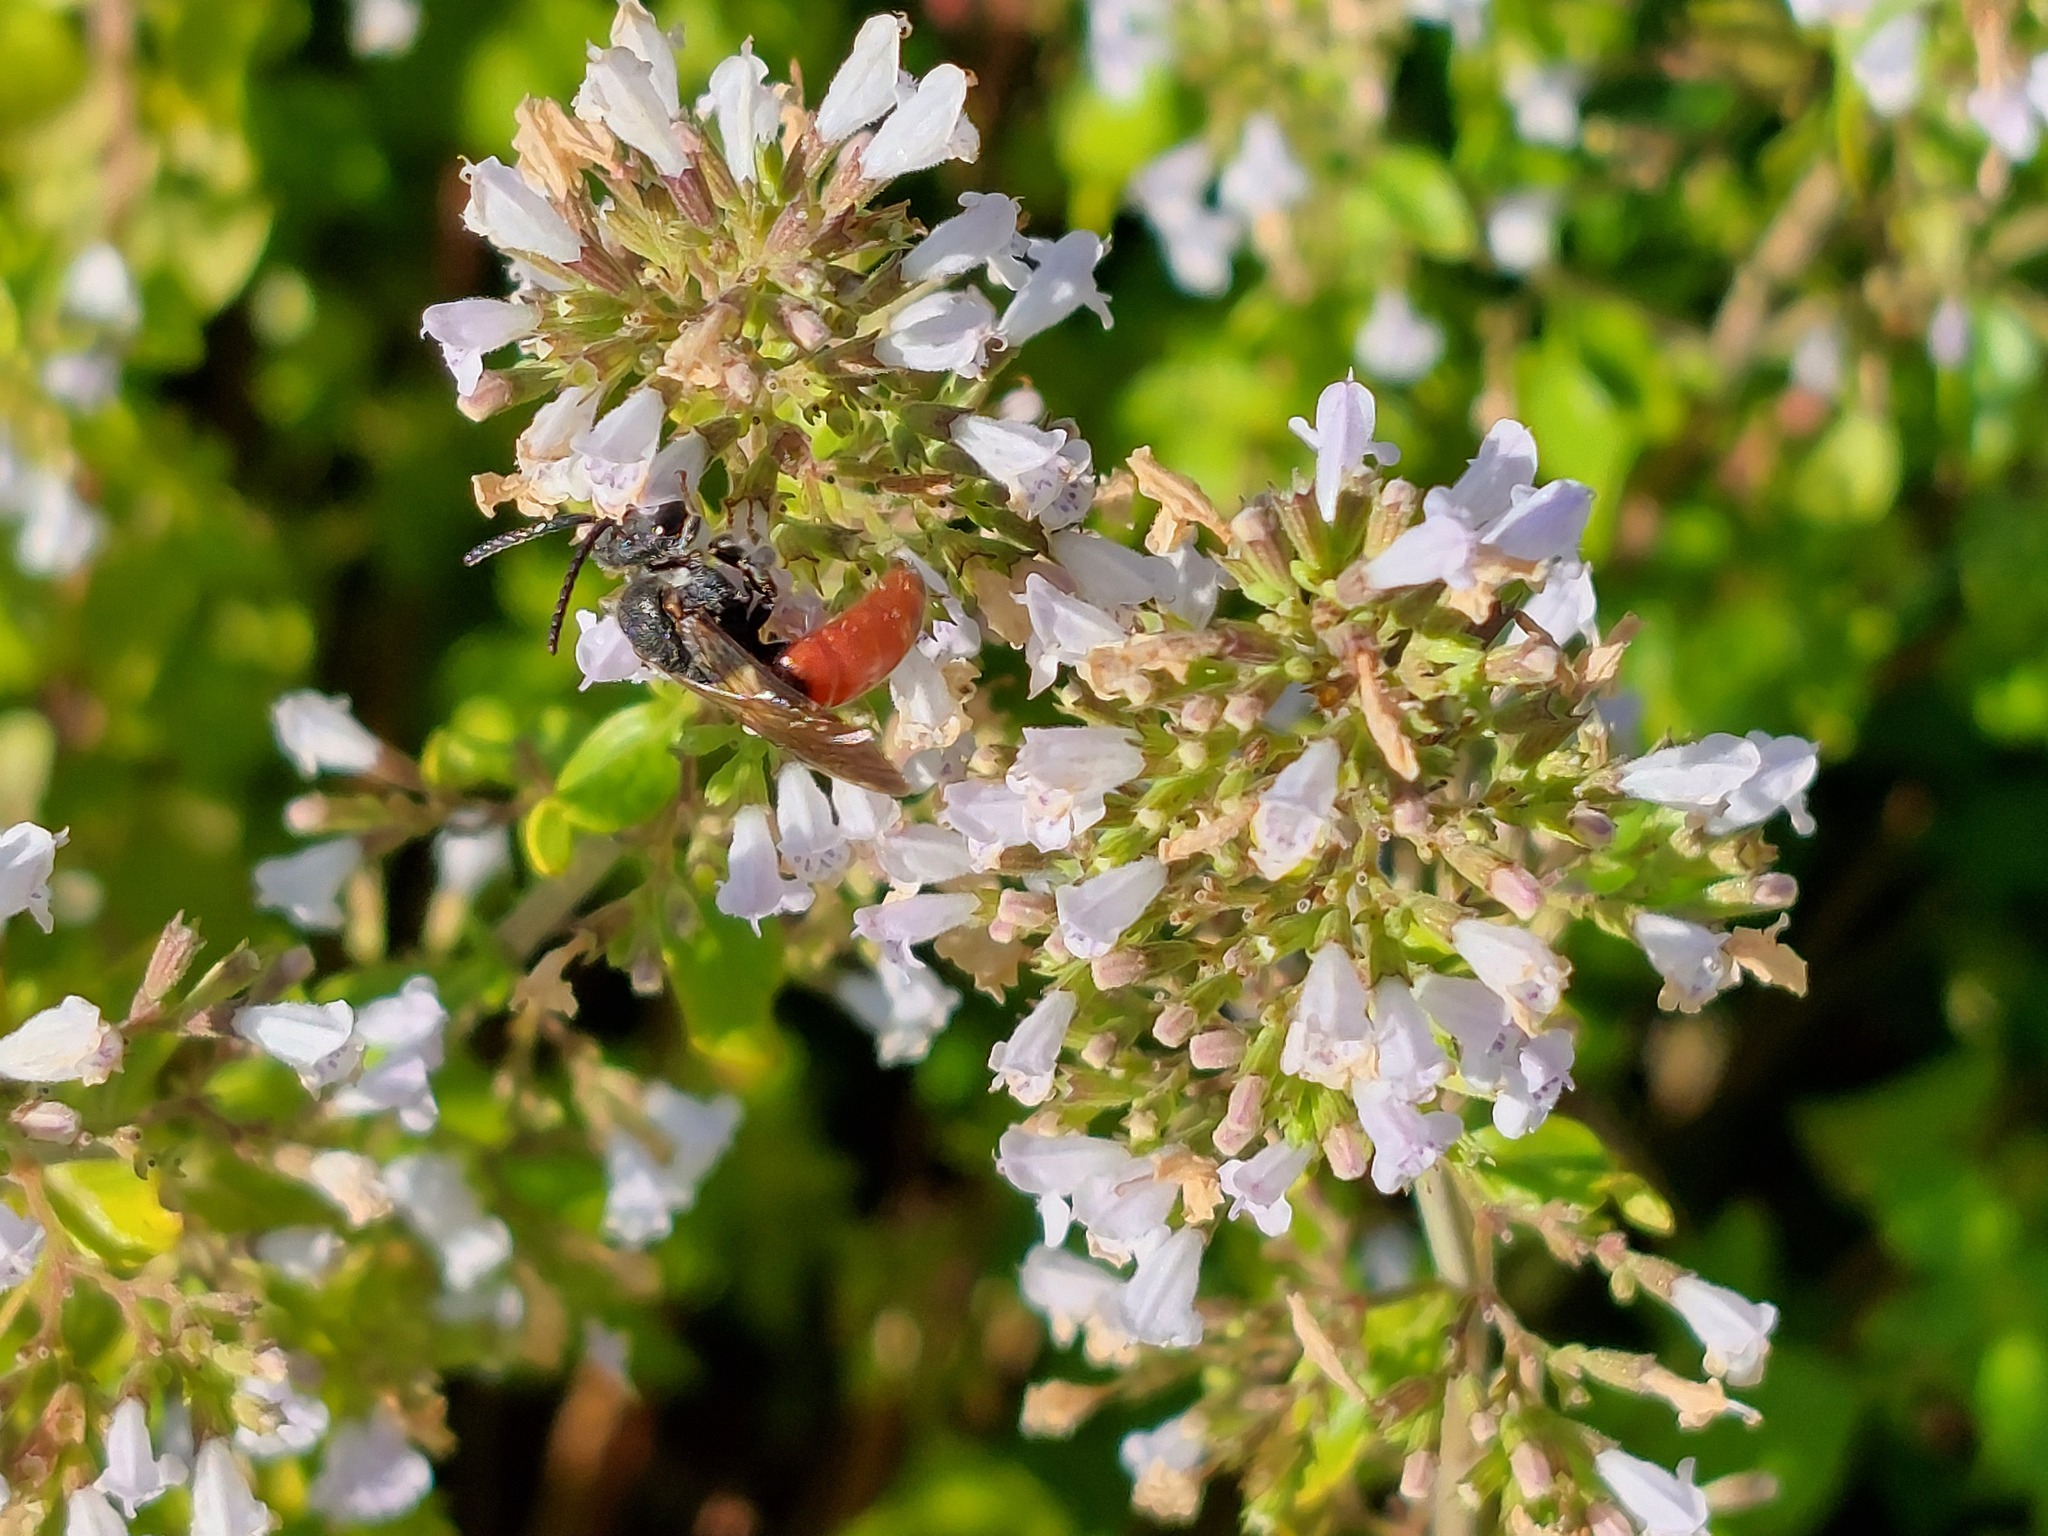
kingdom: Animalia
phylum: Arthropoda
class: Insecta
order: Hymenoptera
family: Halictidae
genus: Sphecodes
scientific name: Sphecodes albilabris
